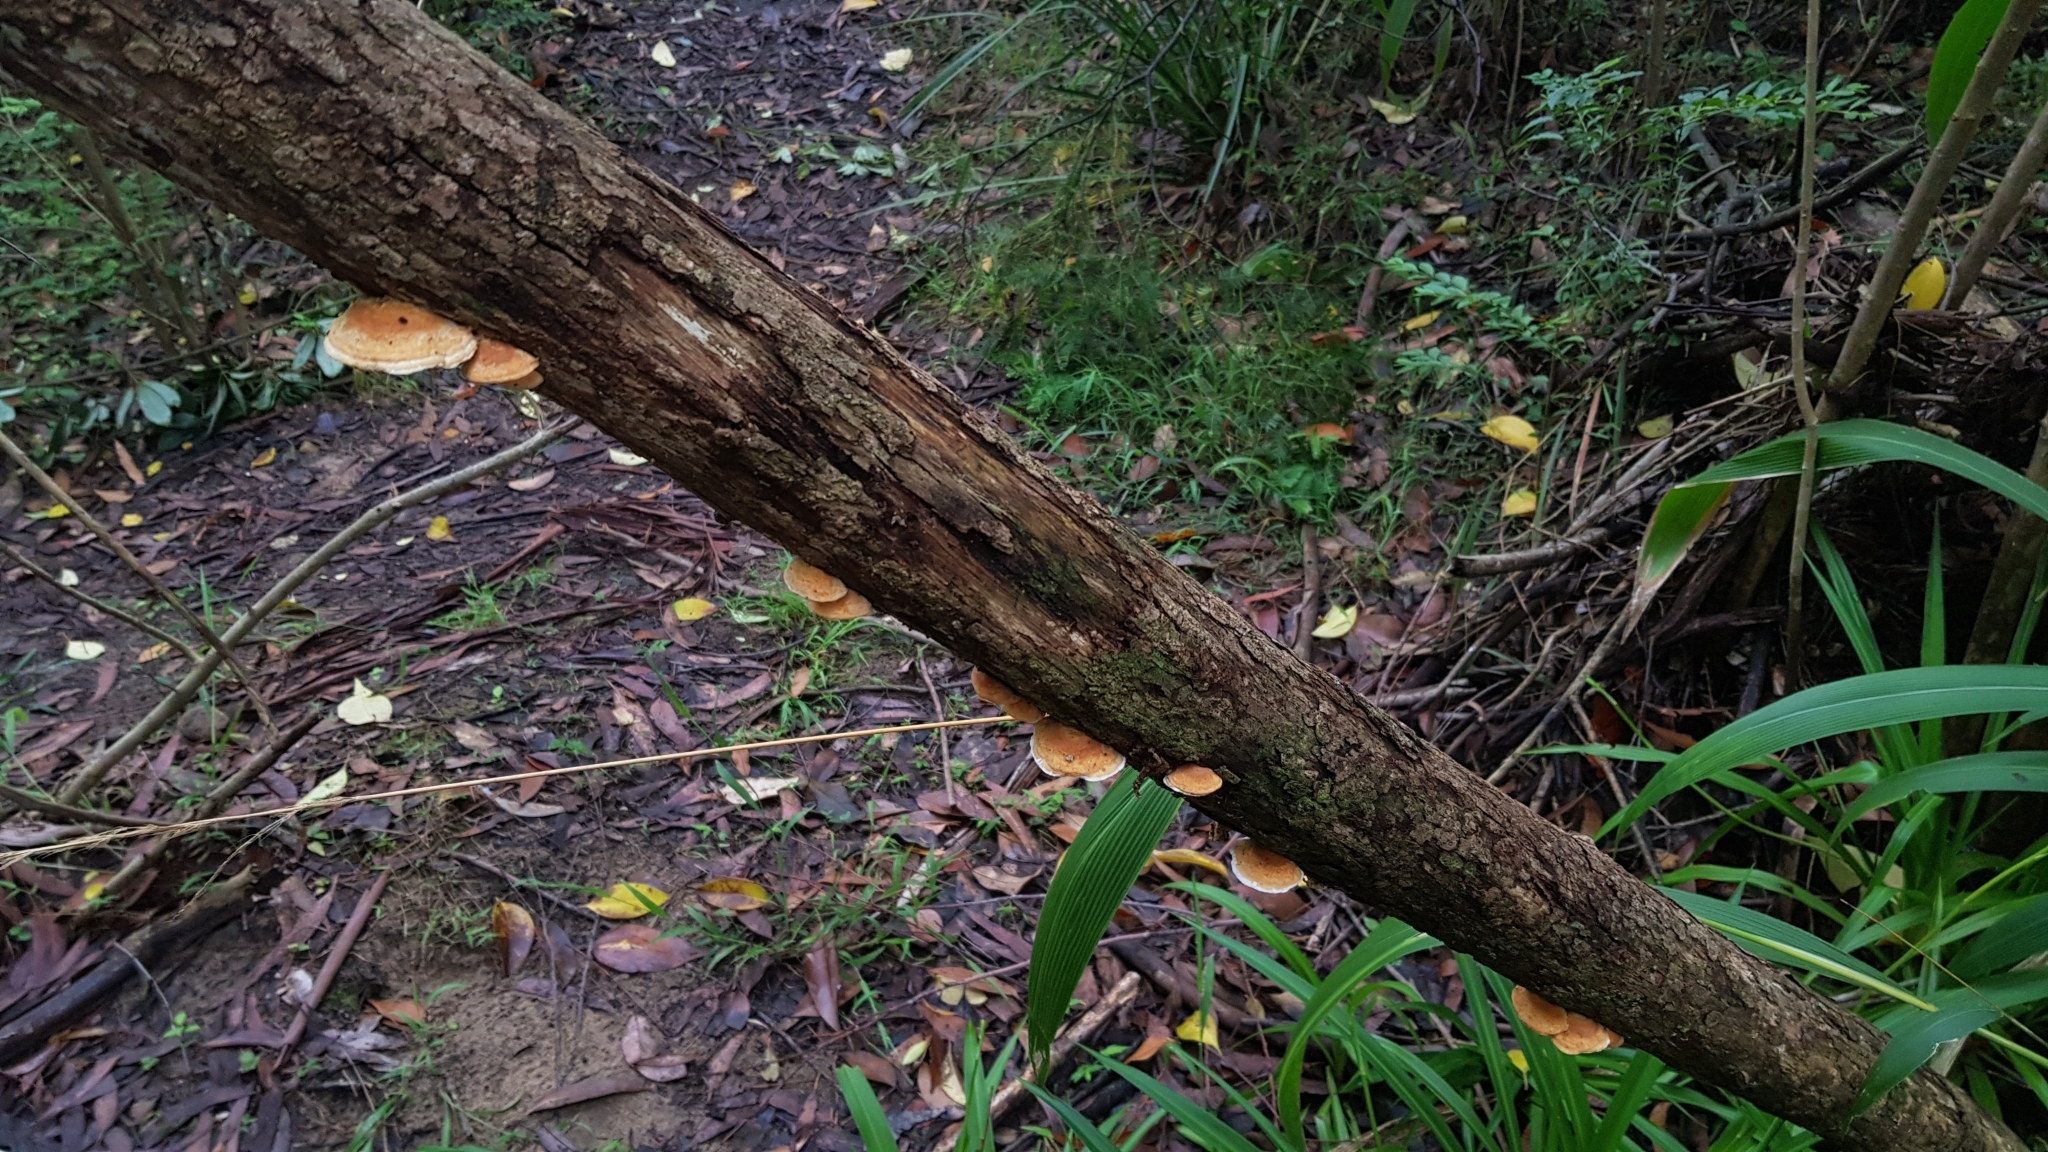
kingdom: Fungi
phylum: Basidiomycota
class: Agaricomycetes
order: Polyporales
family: Polyporaceae
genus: Truncospora
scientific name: Truncospora ochroleuca
